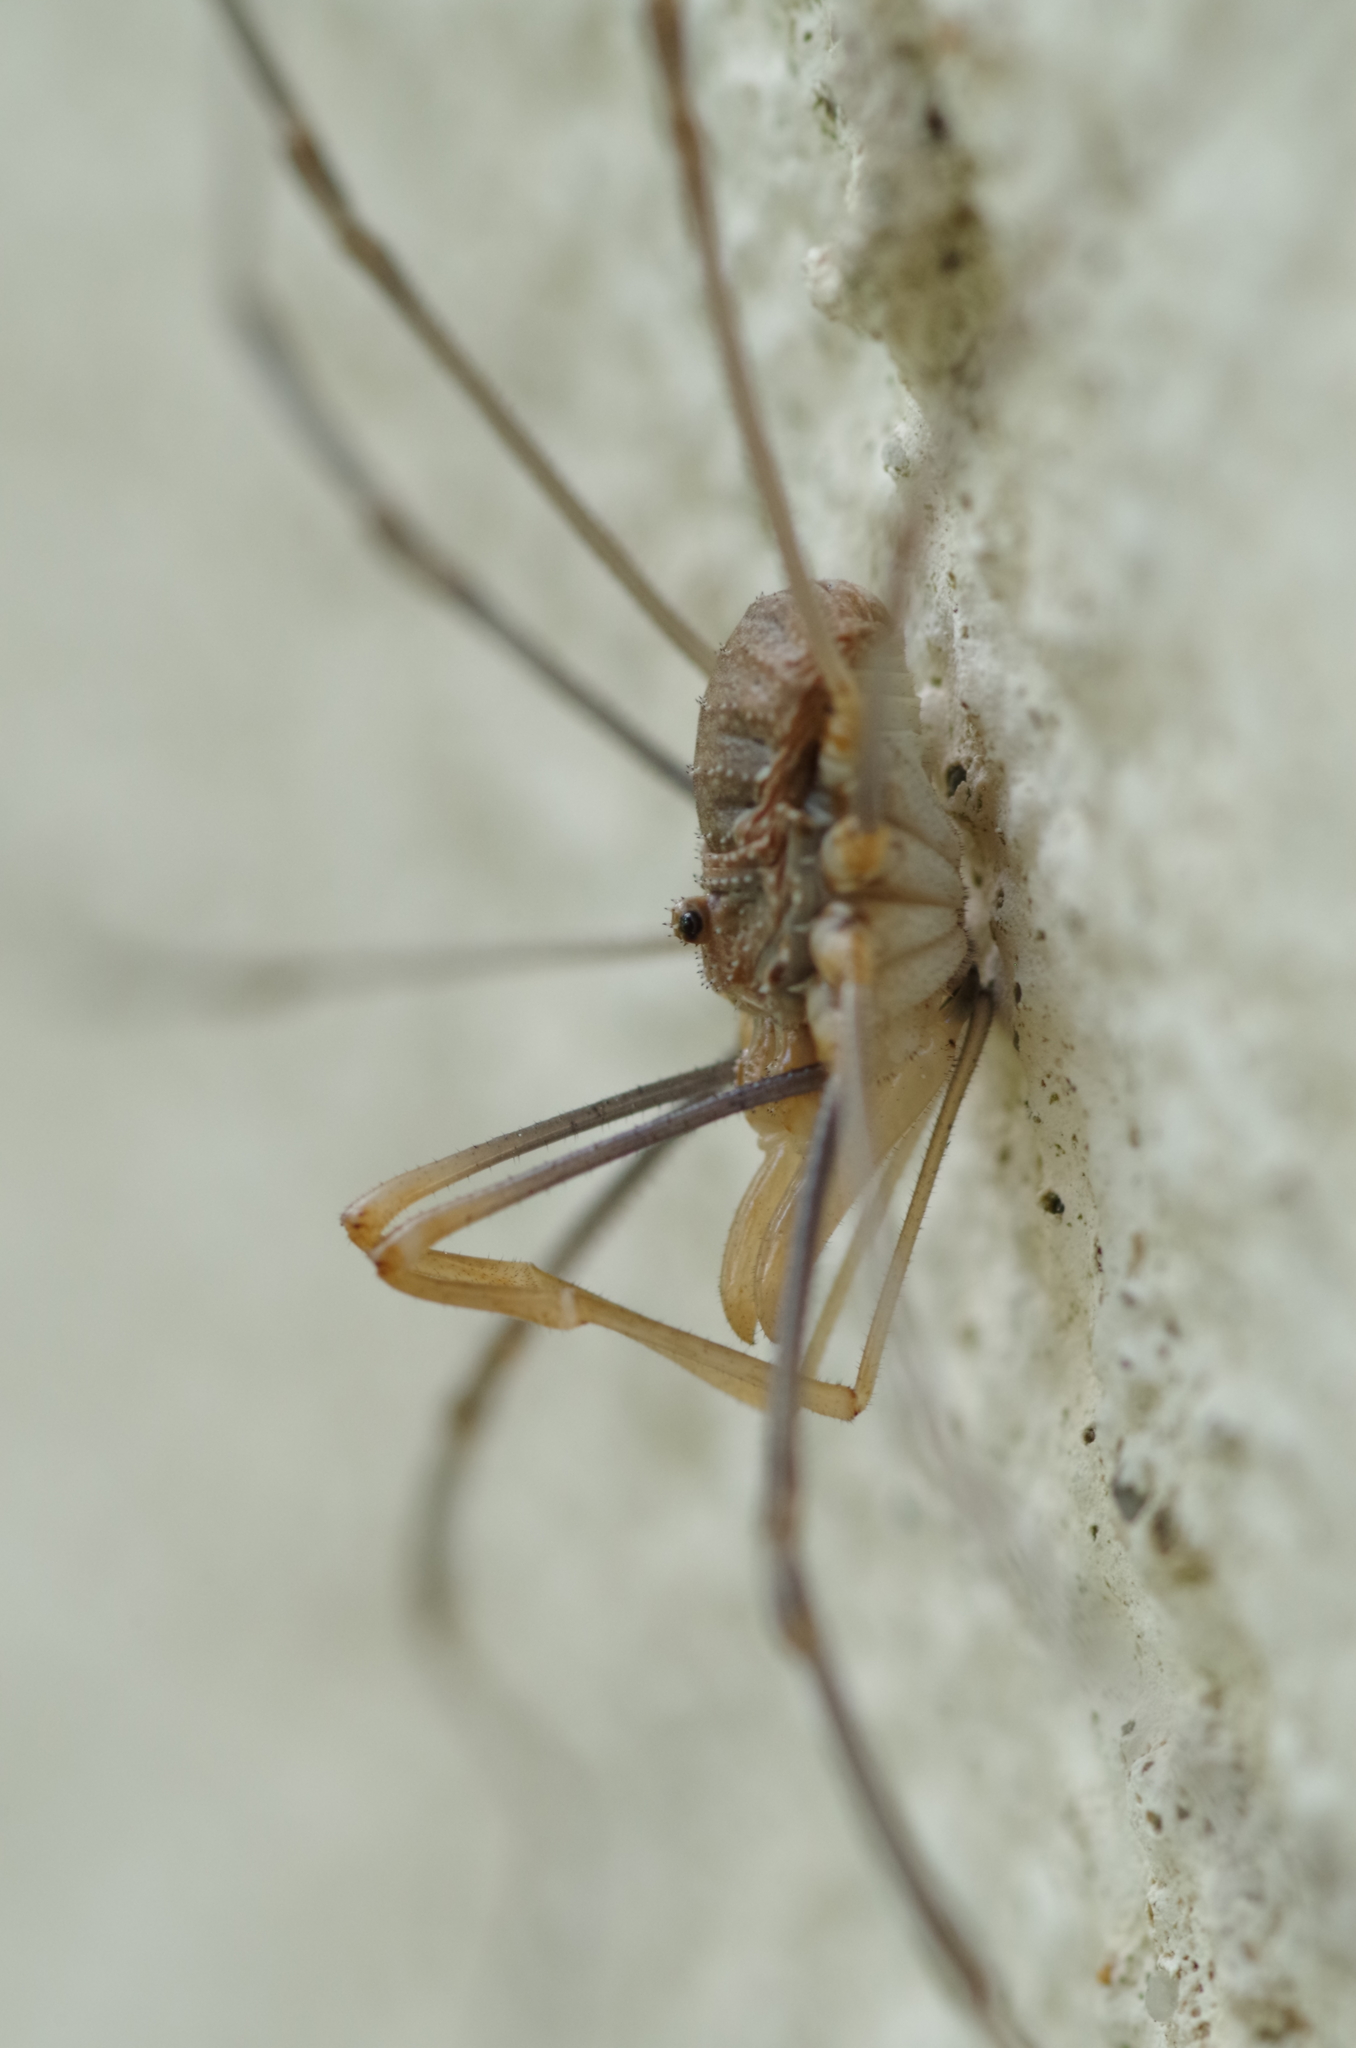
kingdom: Animalia
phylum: Arthropoda
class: Arachnida
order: Opiliones
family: Phalangiidae
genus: Phalangium
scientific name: Phalangium opilio
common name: Daddy longleg
